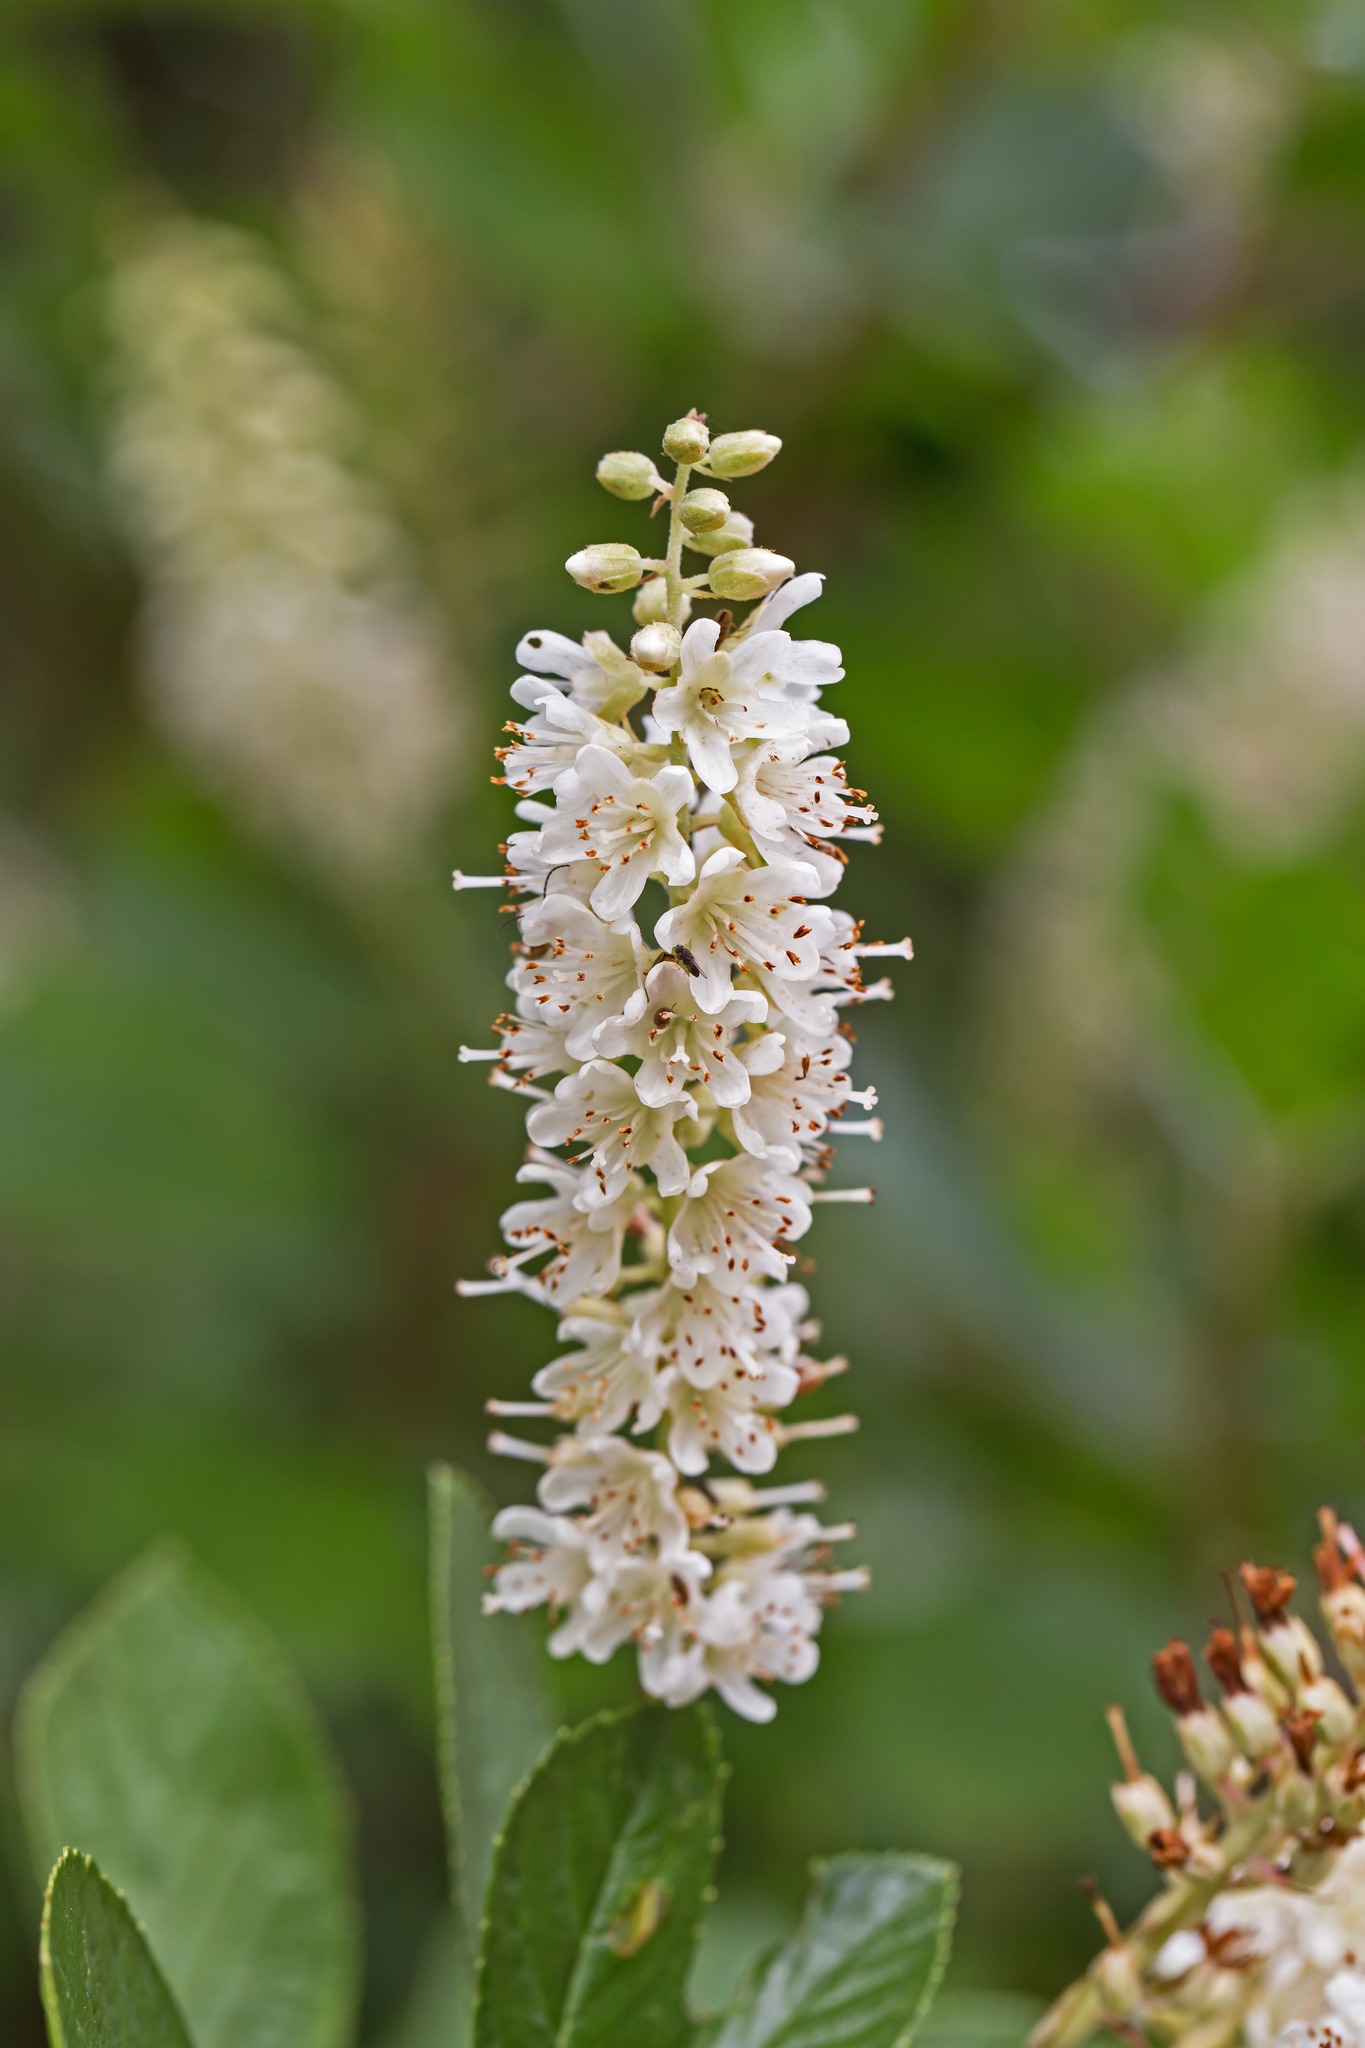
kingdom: Plantae
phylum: Tracheophyta
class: Magnoliopsida
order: Ericales
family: Clethraceae
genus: Clethra
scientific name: Clethra alnifolia
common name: Sweet pepperbush
